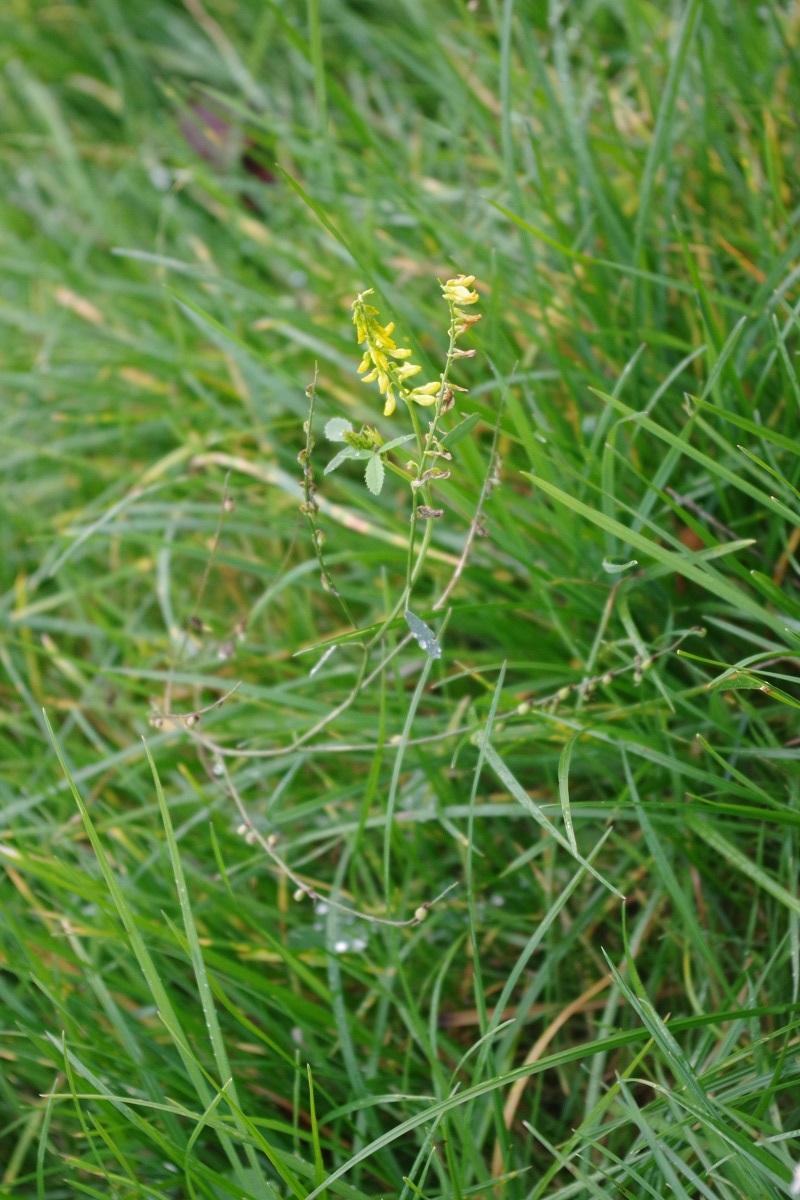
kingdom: Plantae
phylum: Tracheophyta
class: Magnoliopsida
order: Fabales
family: Fabaceae
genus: Melilotus
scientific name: Melilotus officinalis
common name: Sweetclover
